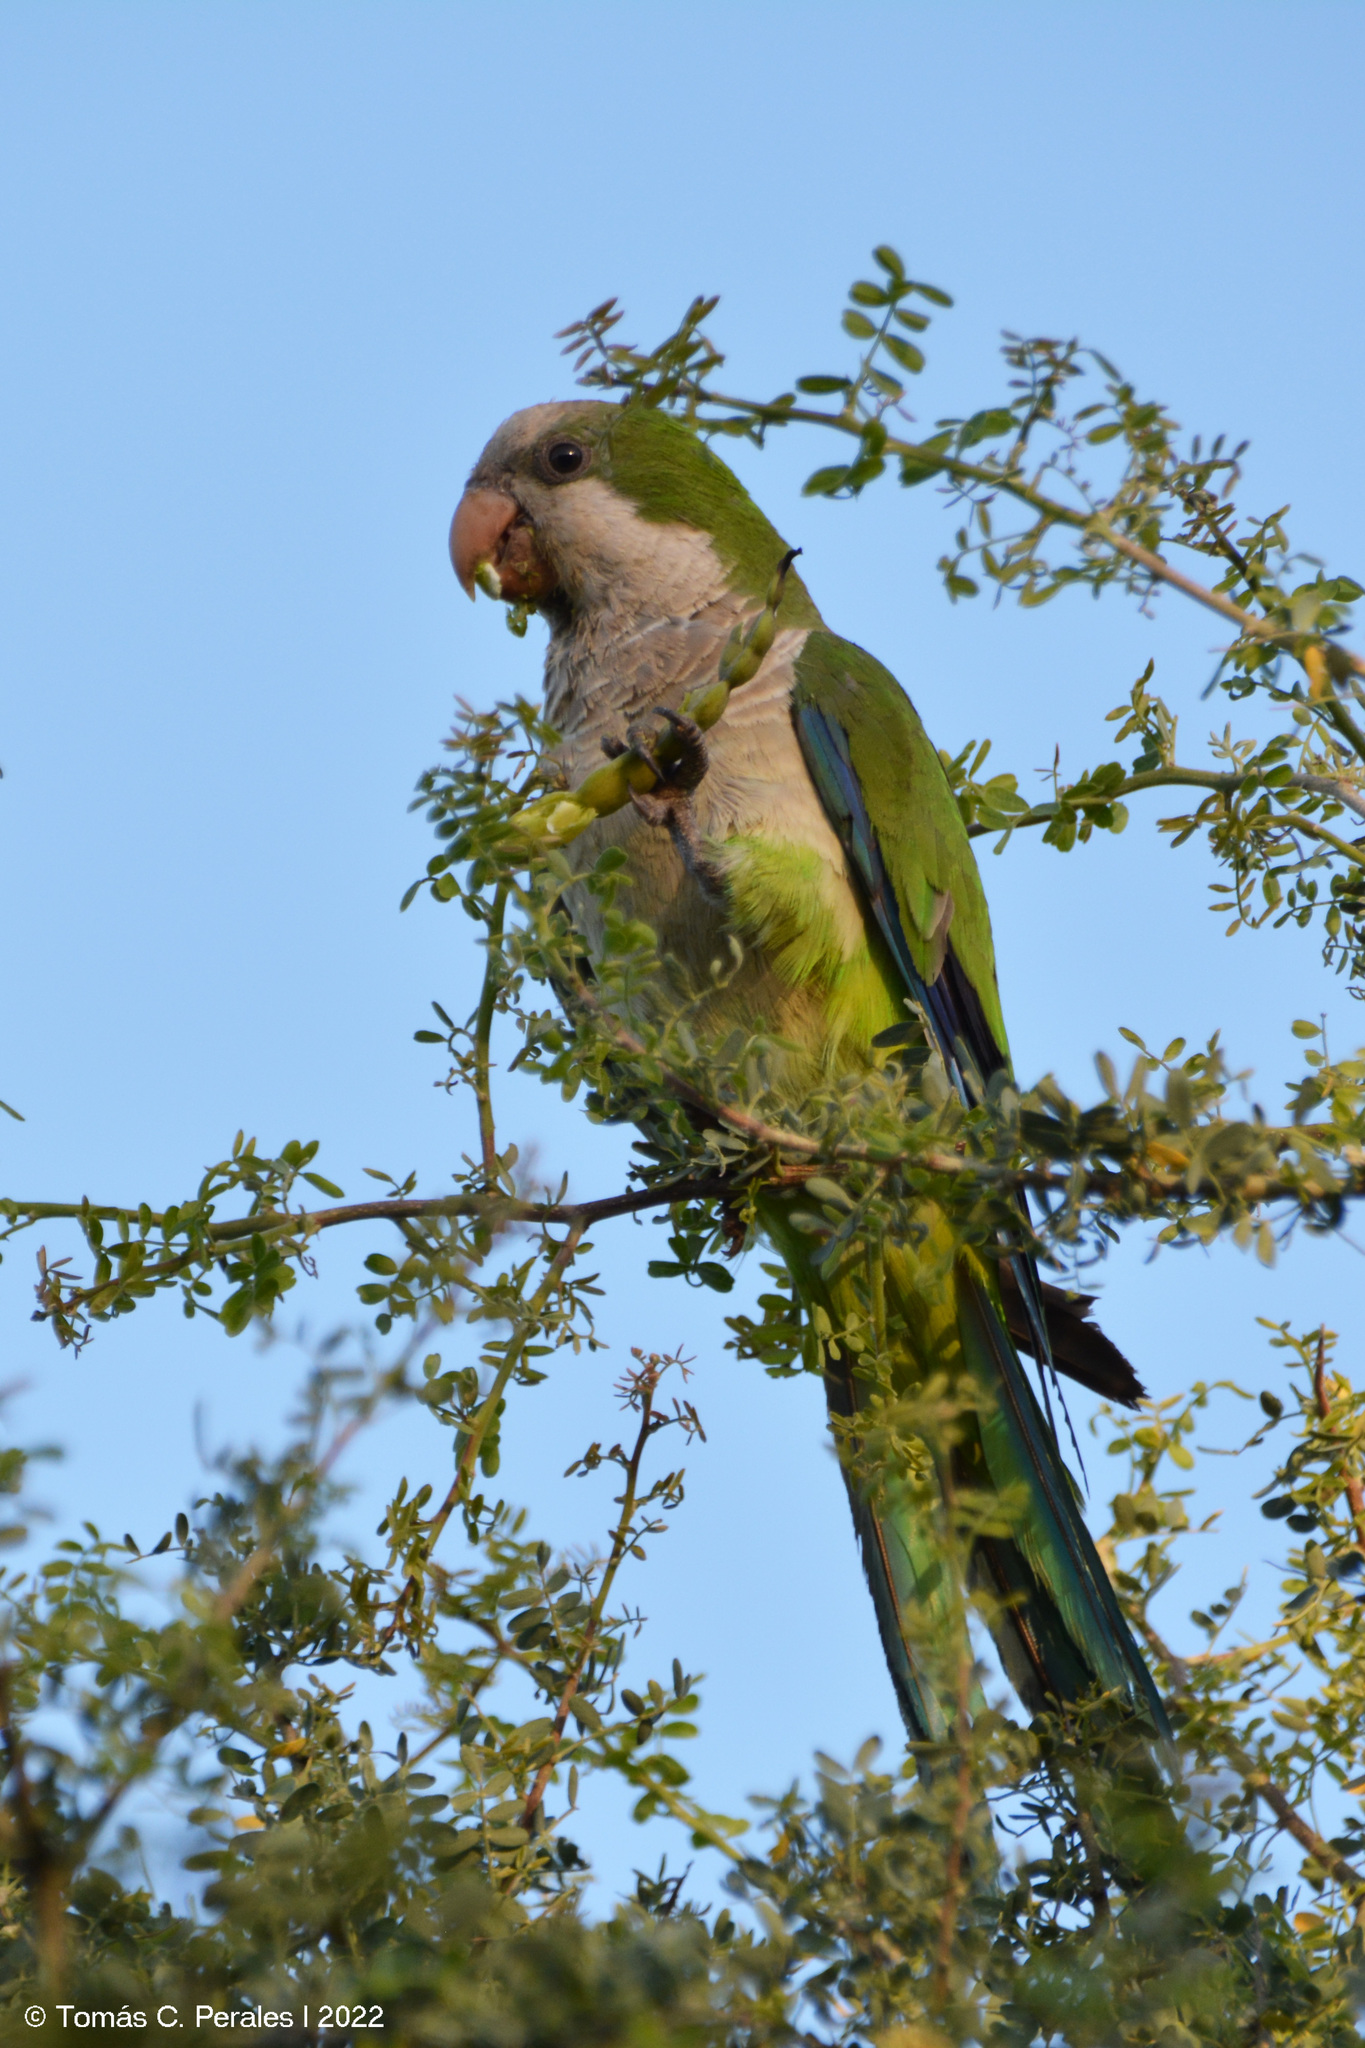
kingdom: Plantae
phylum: Tracheophyta
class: Magnoliopsida
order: Fabales
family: Fabaceae
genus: Vachellia
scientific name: Vachellia aroma
